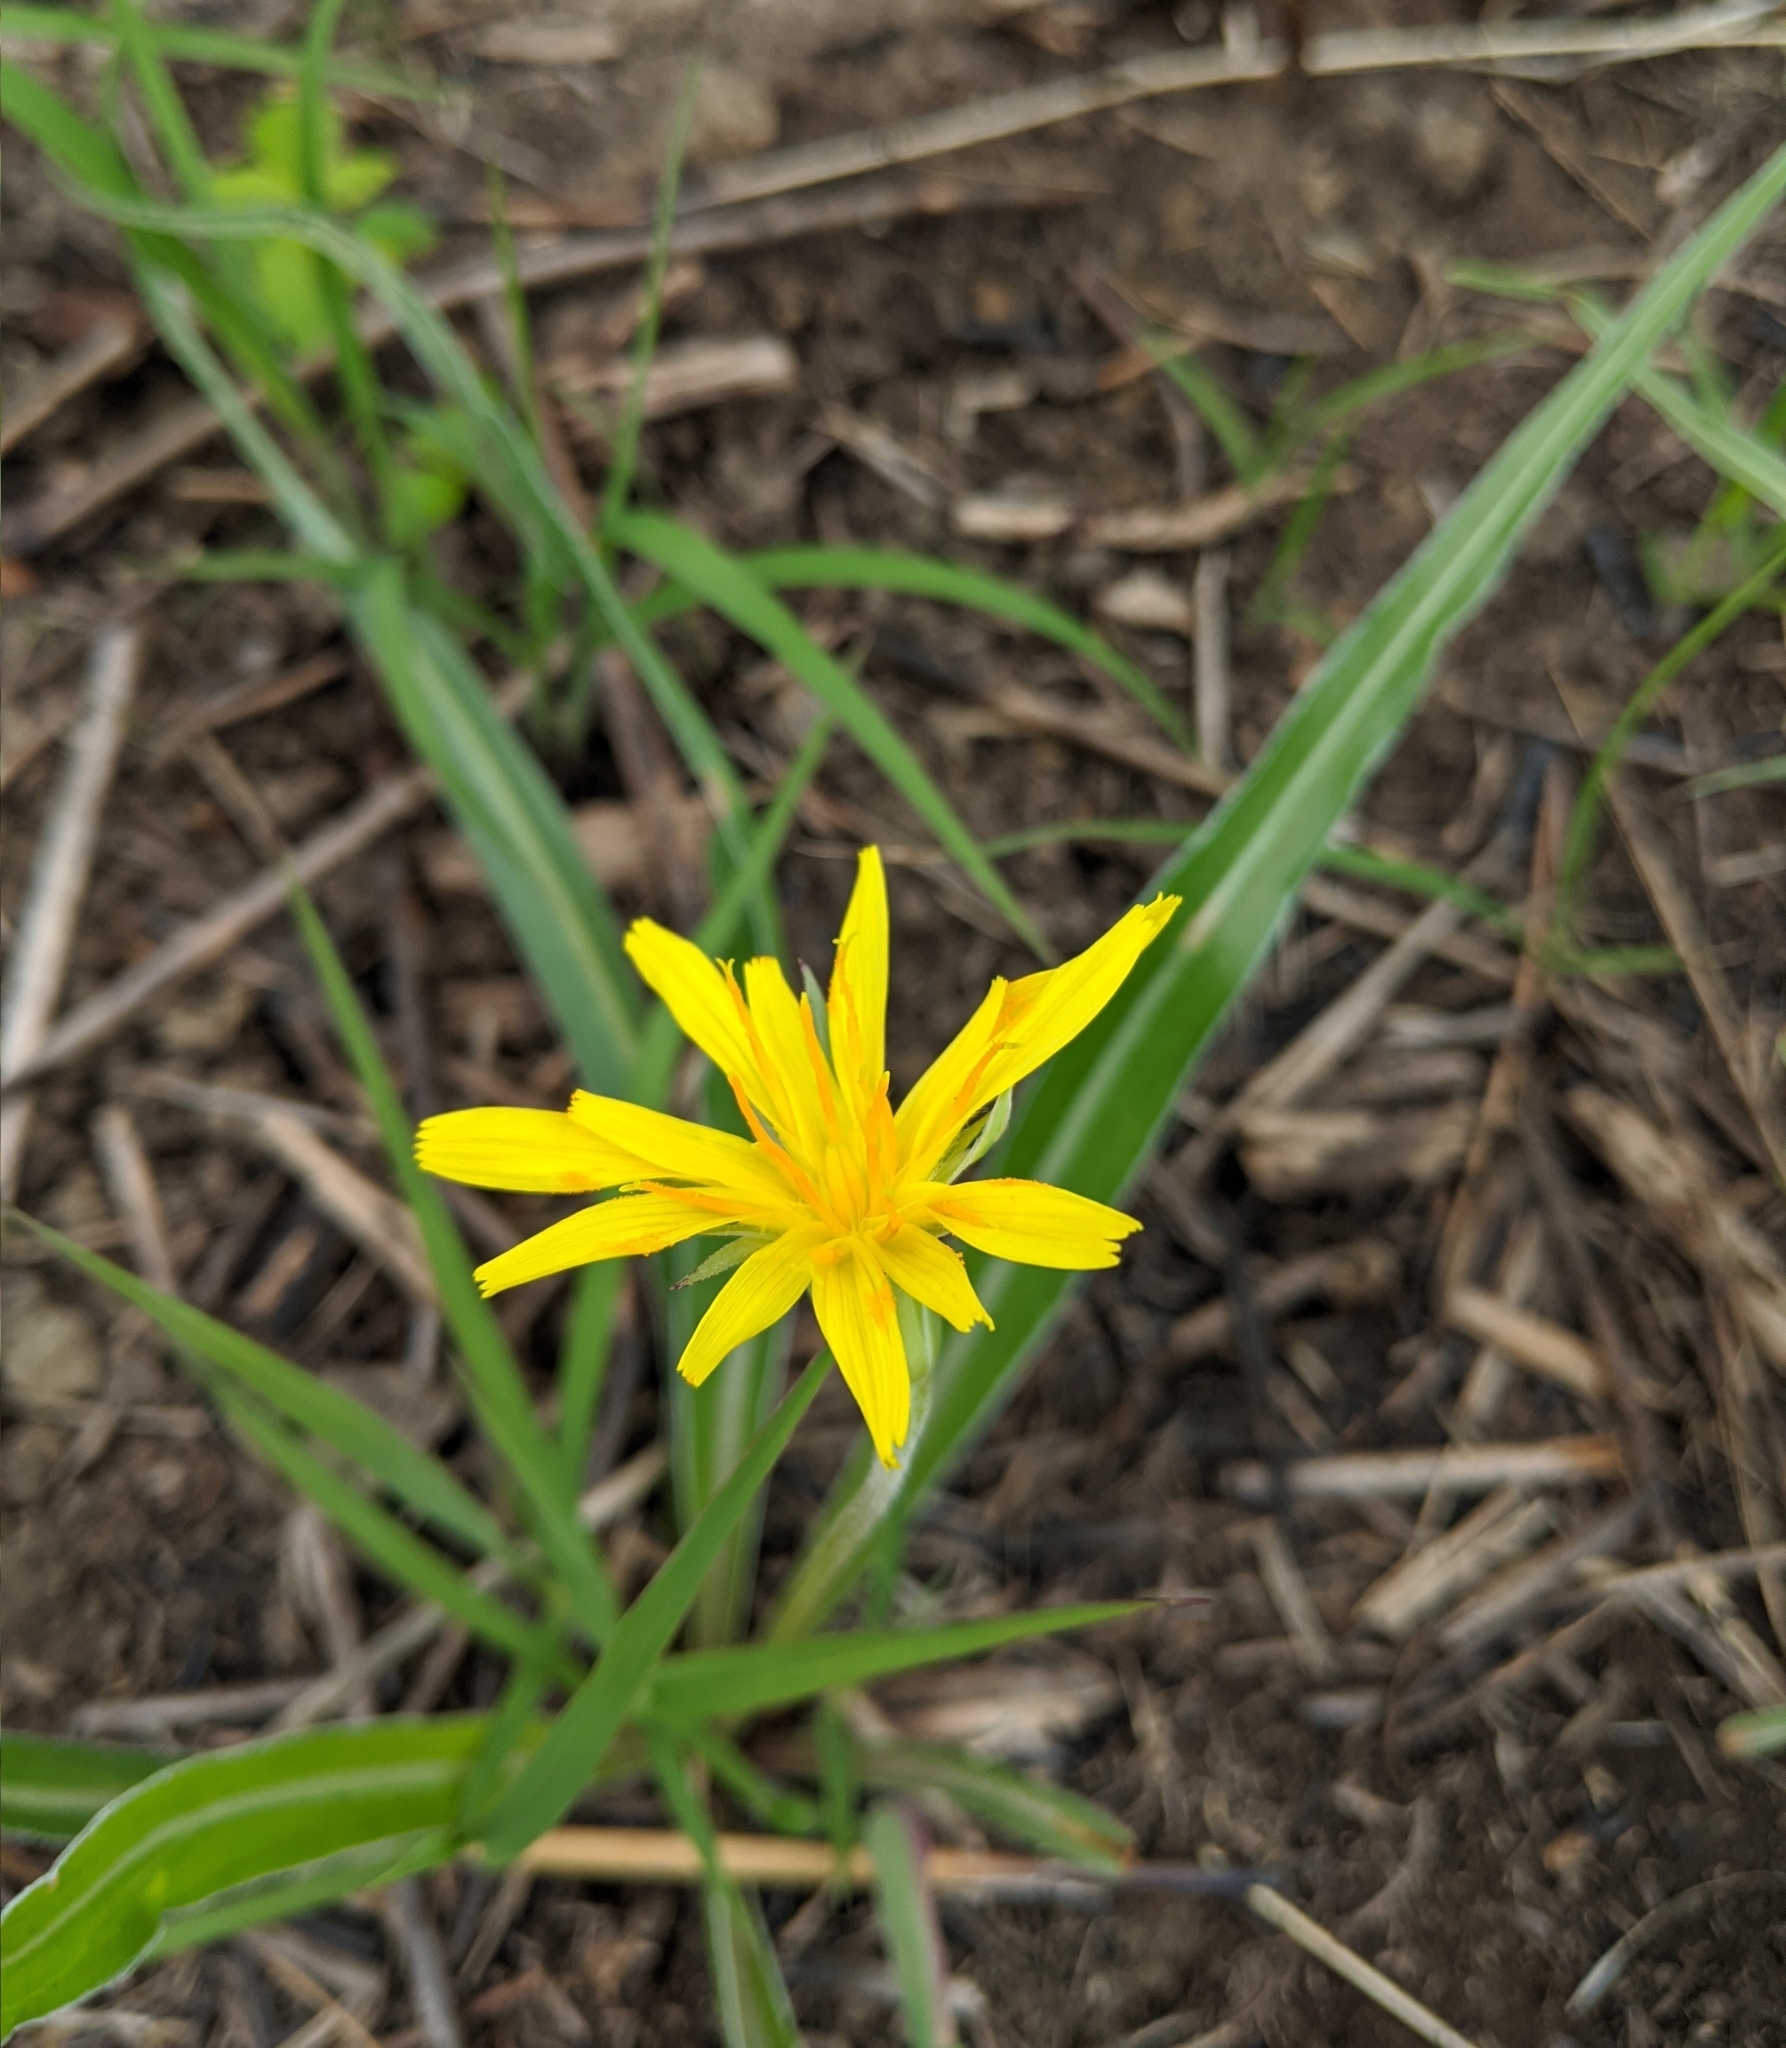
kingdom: Plantae
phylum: Tracheophyta
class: Magnoliopsida
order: Asterales
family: Asteraceae
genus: Microseris
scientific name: Microseris cuspidata
